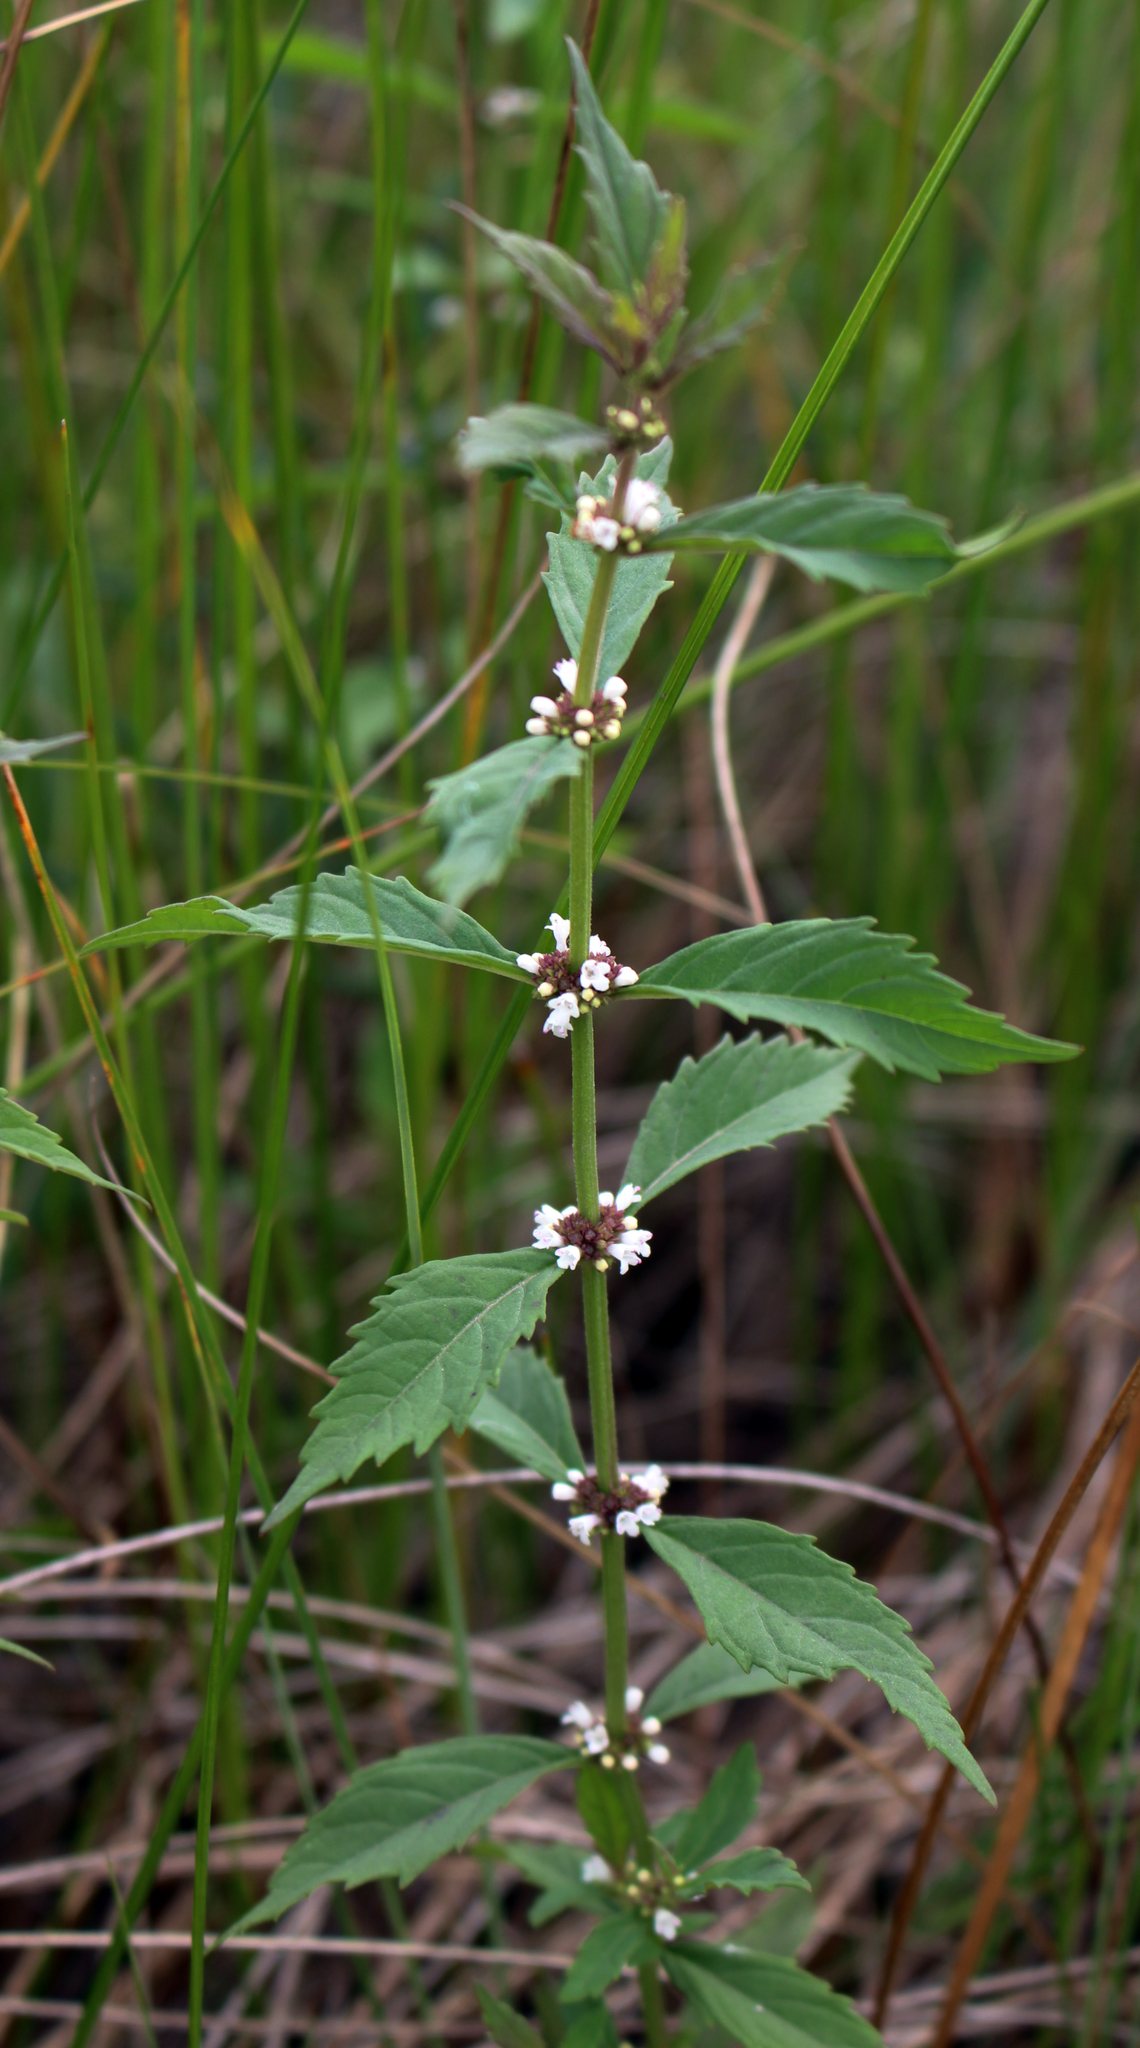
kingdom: Plantae
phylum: Tracheophyta
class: Magnoliopsida
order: Lamiales
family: Lamiaceae
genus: Lycopus
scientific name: Lycopus uniflorus
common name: Northern bugleweed
